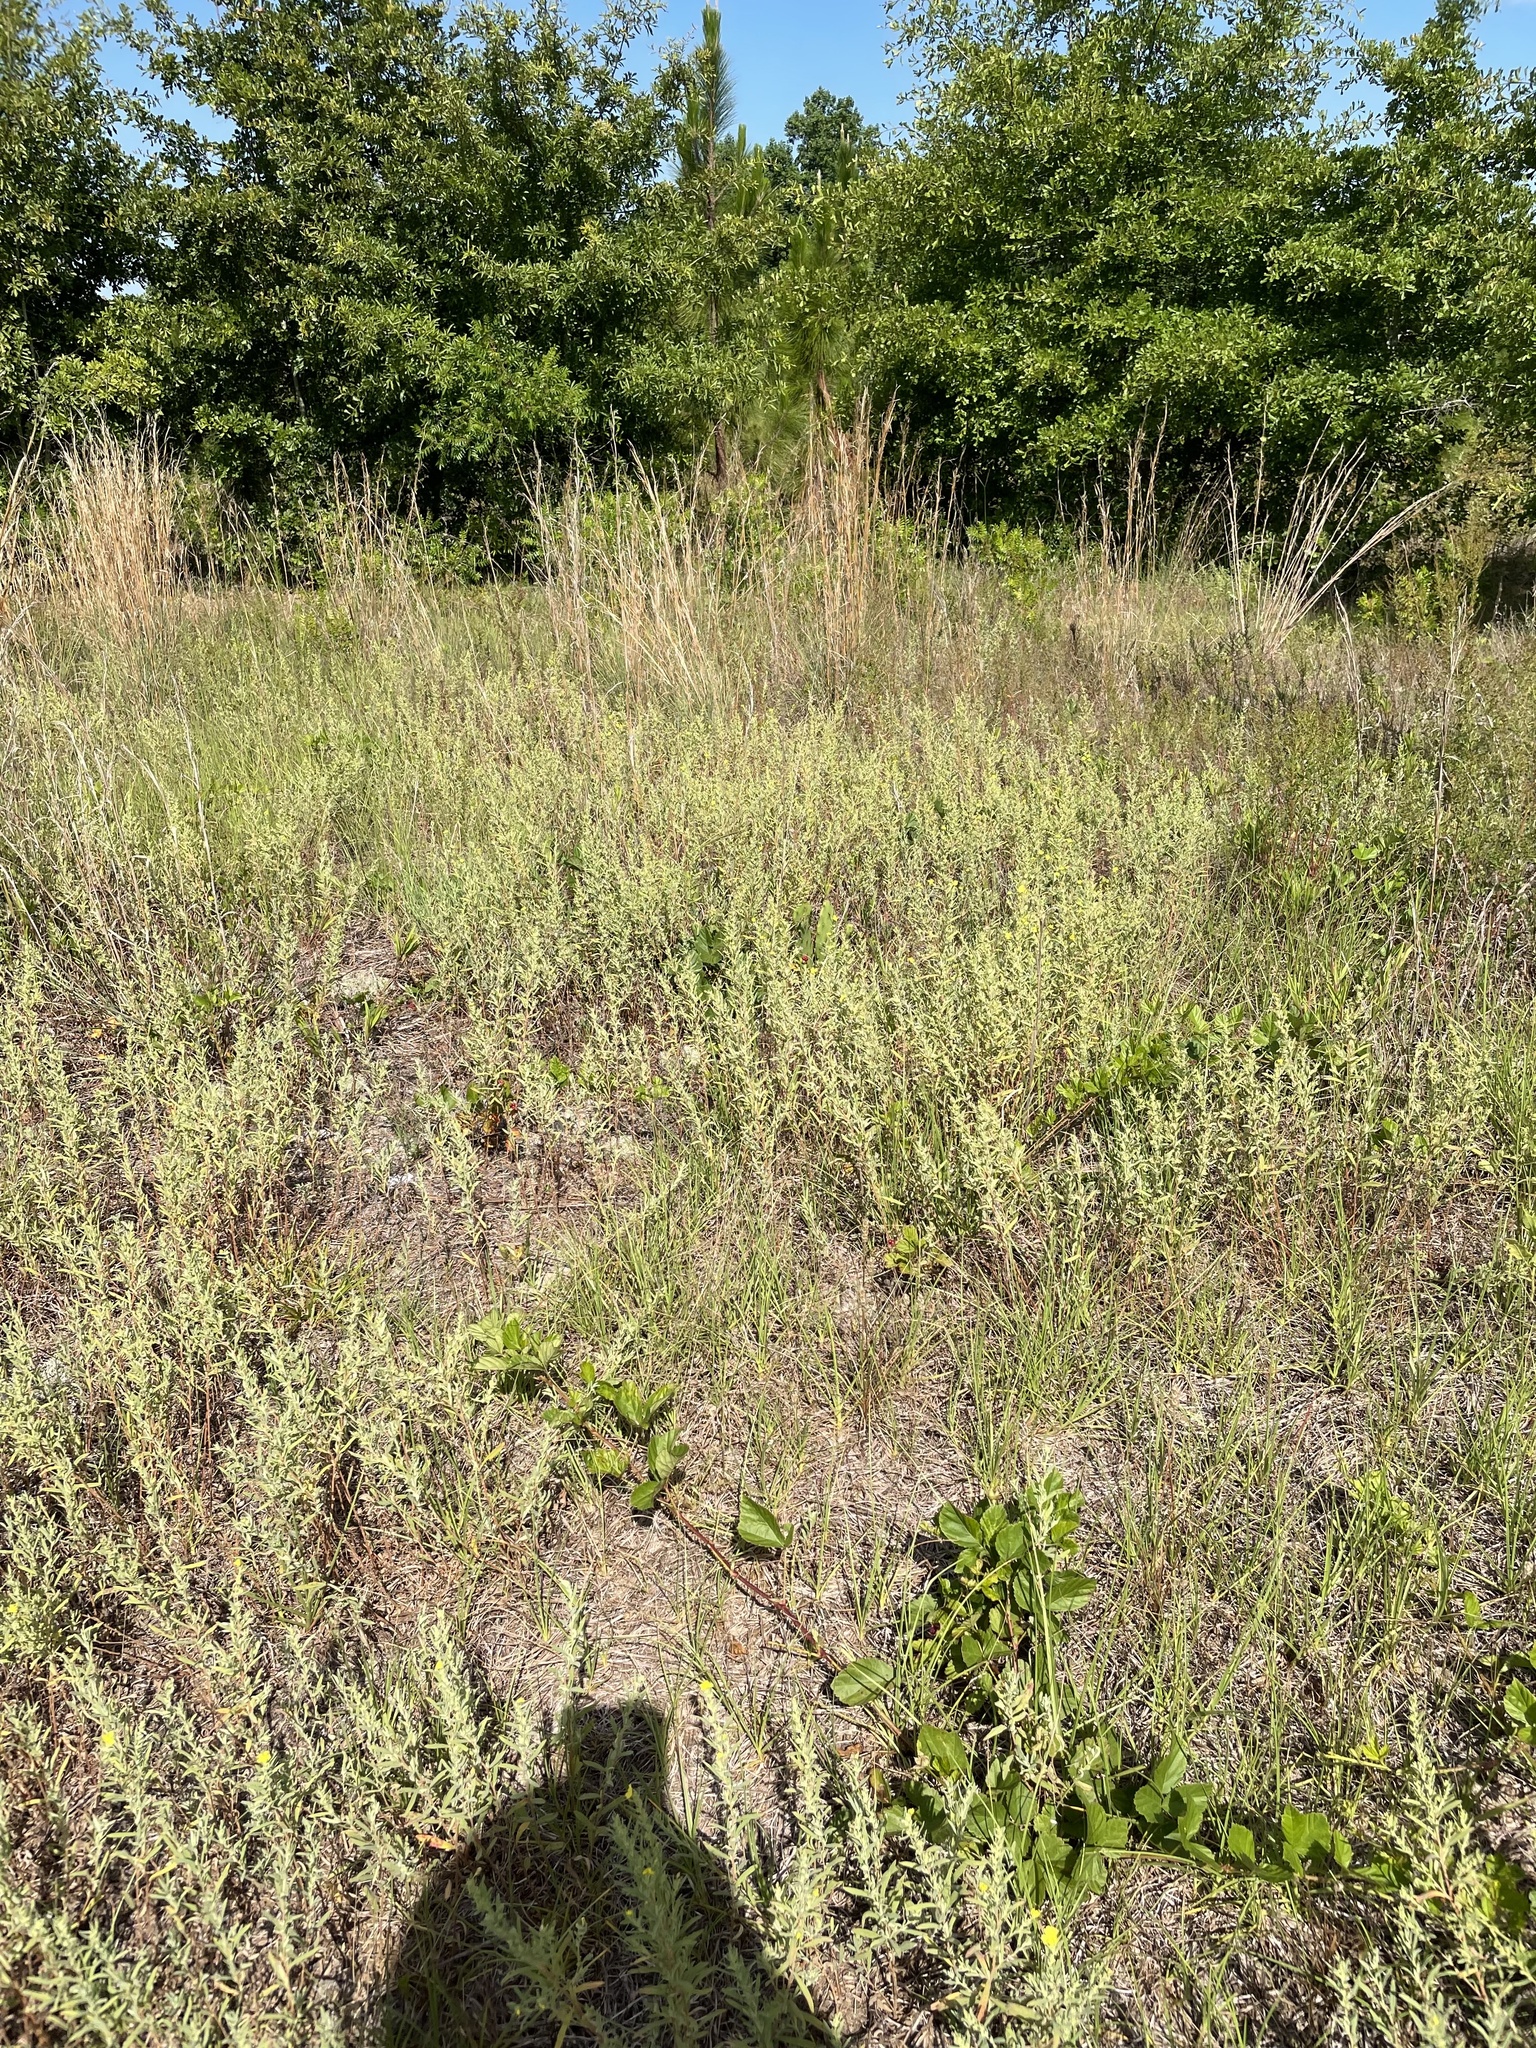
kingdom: Plantae
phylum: Tracheophyta
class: Magnoliopsida
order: Malvales
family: Cistaceae
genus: Crocanthemum
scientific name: Crocanthemum rosmarinifolium
